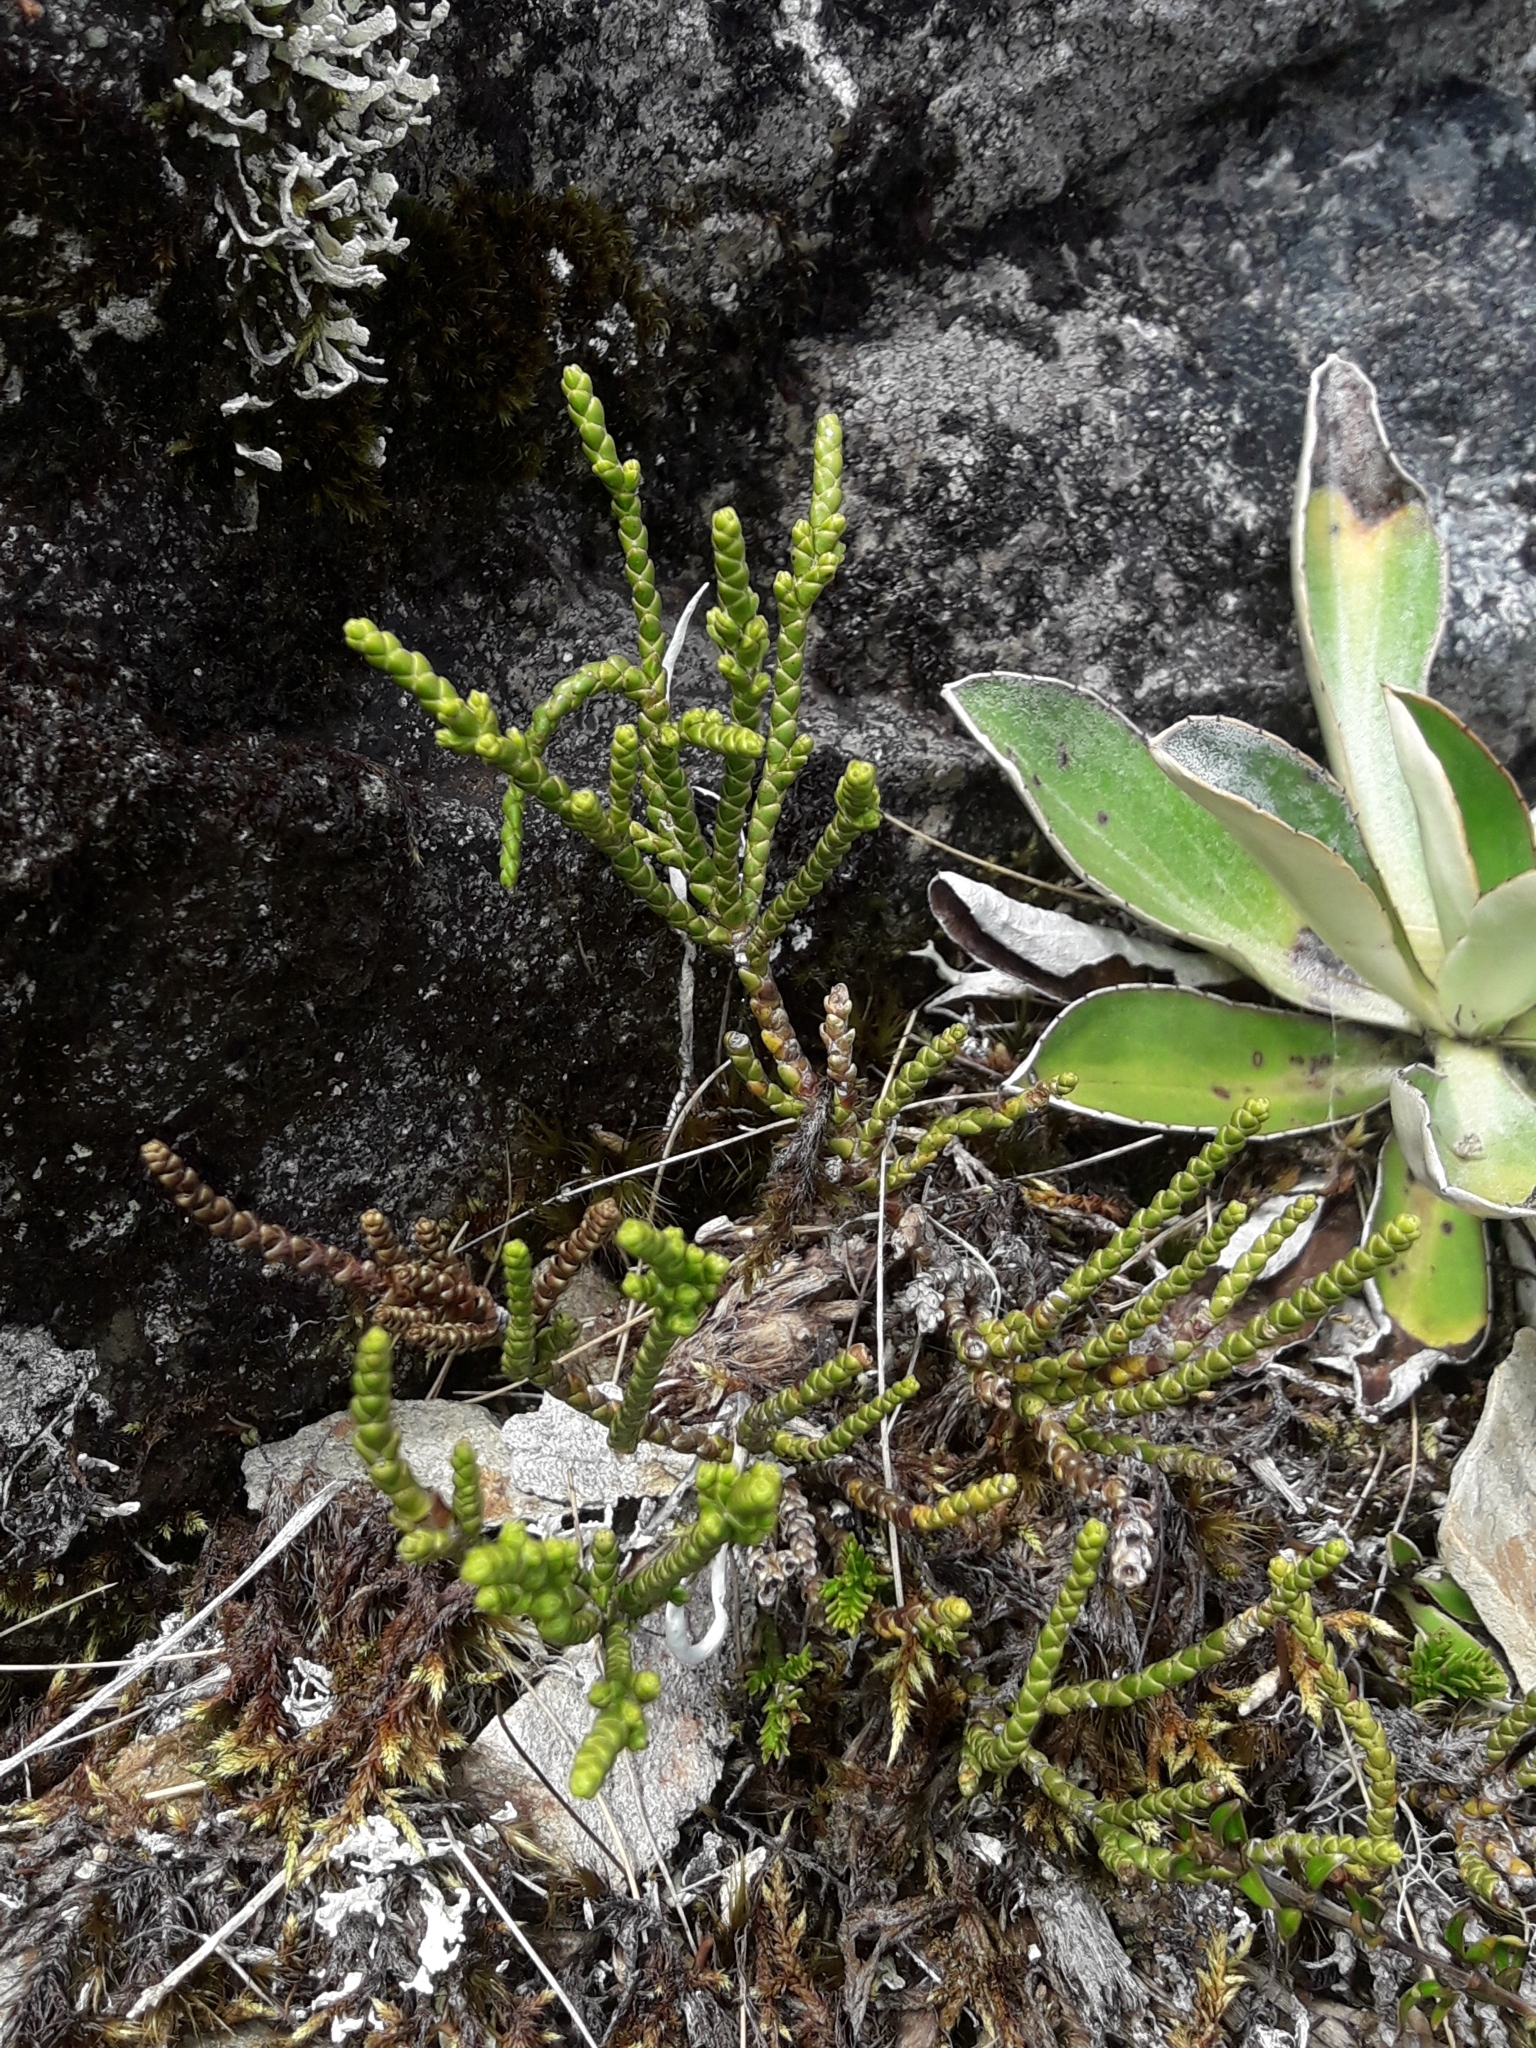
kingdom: Plantae
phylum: Tracheophyta
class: Magnoliopsida
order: Lamiales
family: Plantaginaceae
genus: Veronica
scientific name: Veronica hectorii
